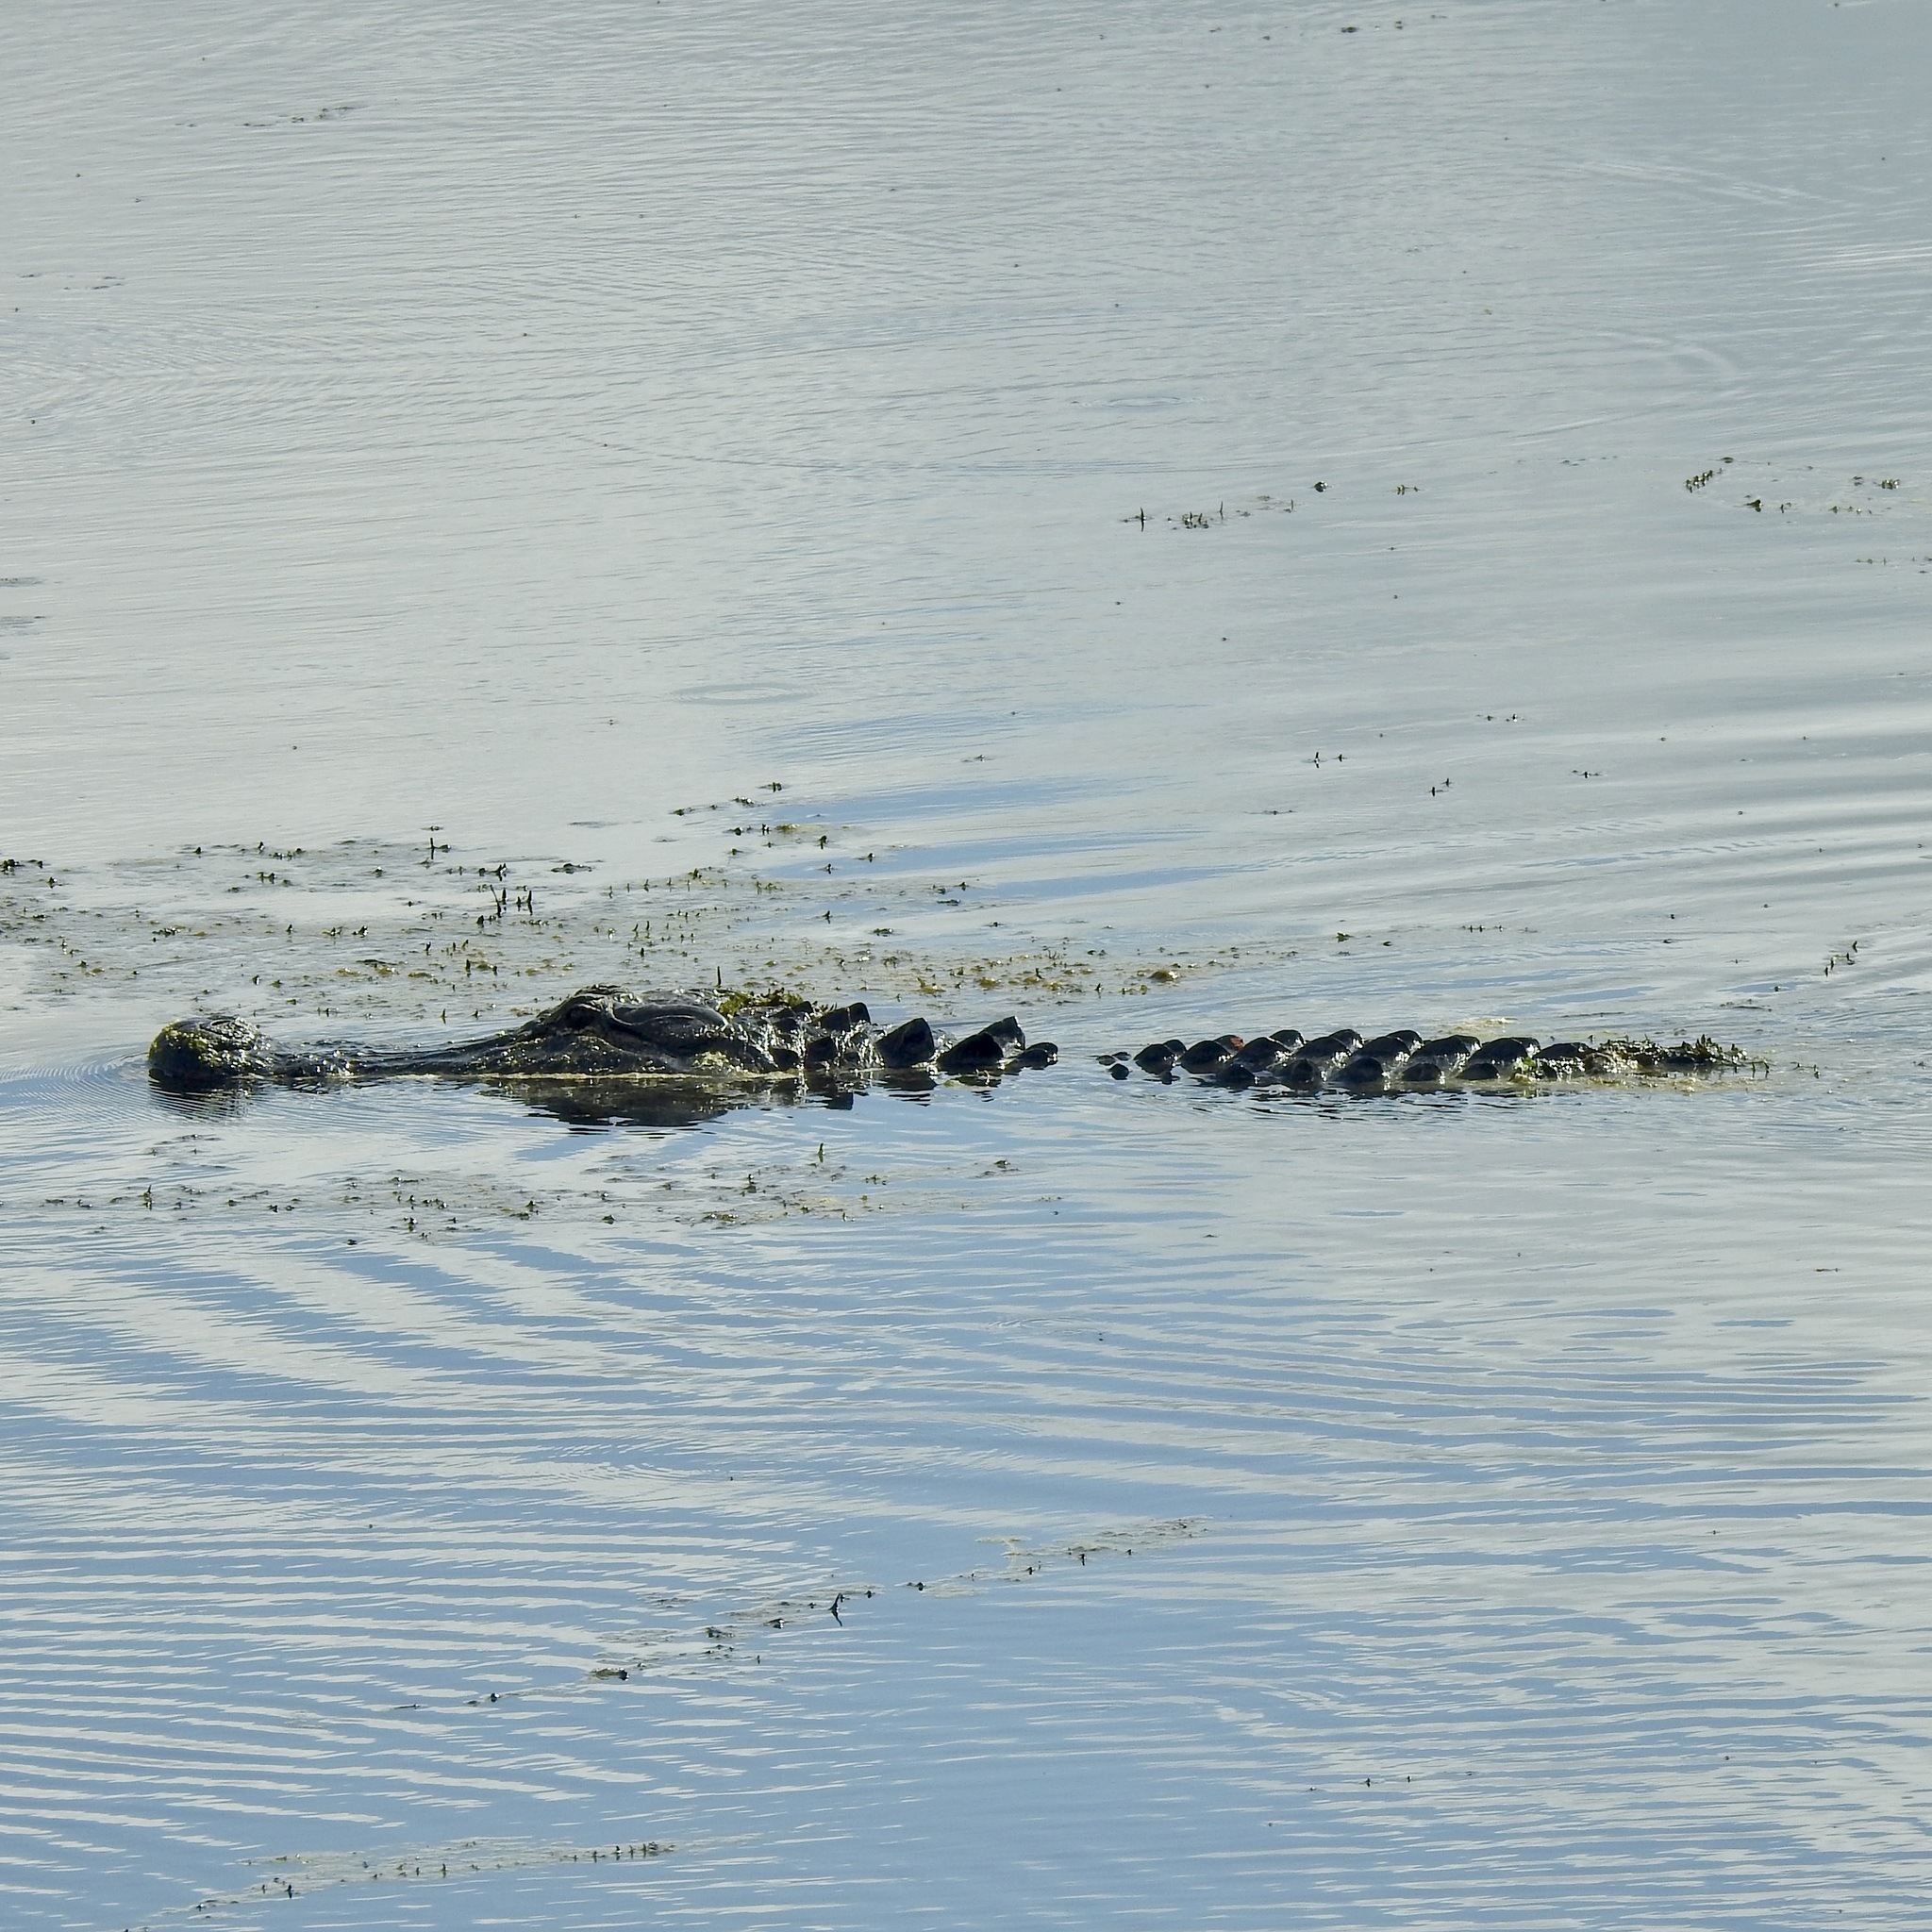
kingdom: Animalia
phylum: Chordata
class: Crocodylia
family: Alligatoridae
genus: Alligator
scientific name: Alligator mississippiensis
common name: American alligator
